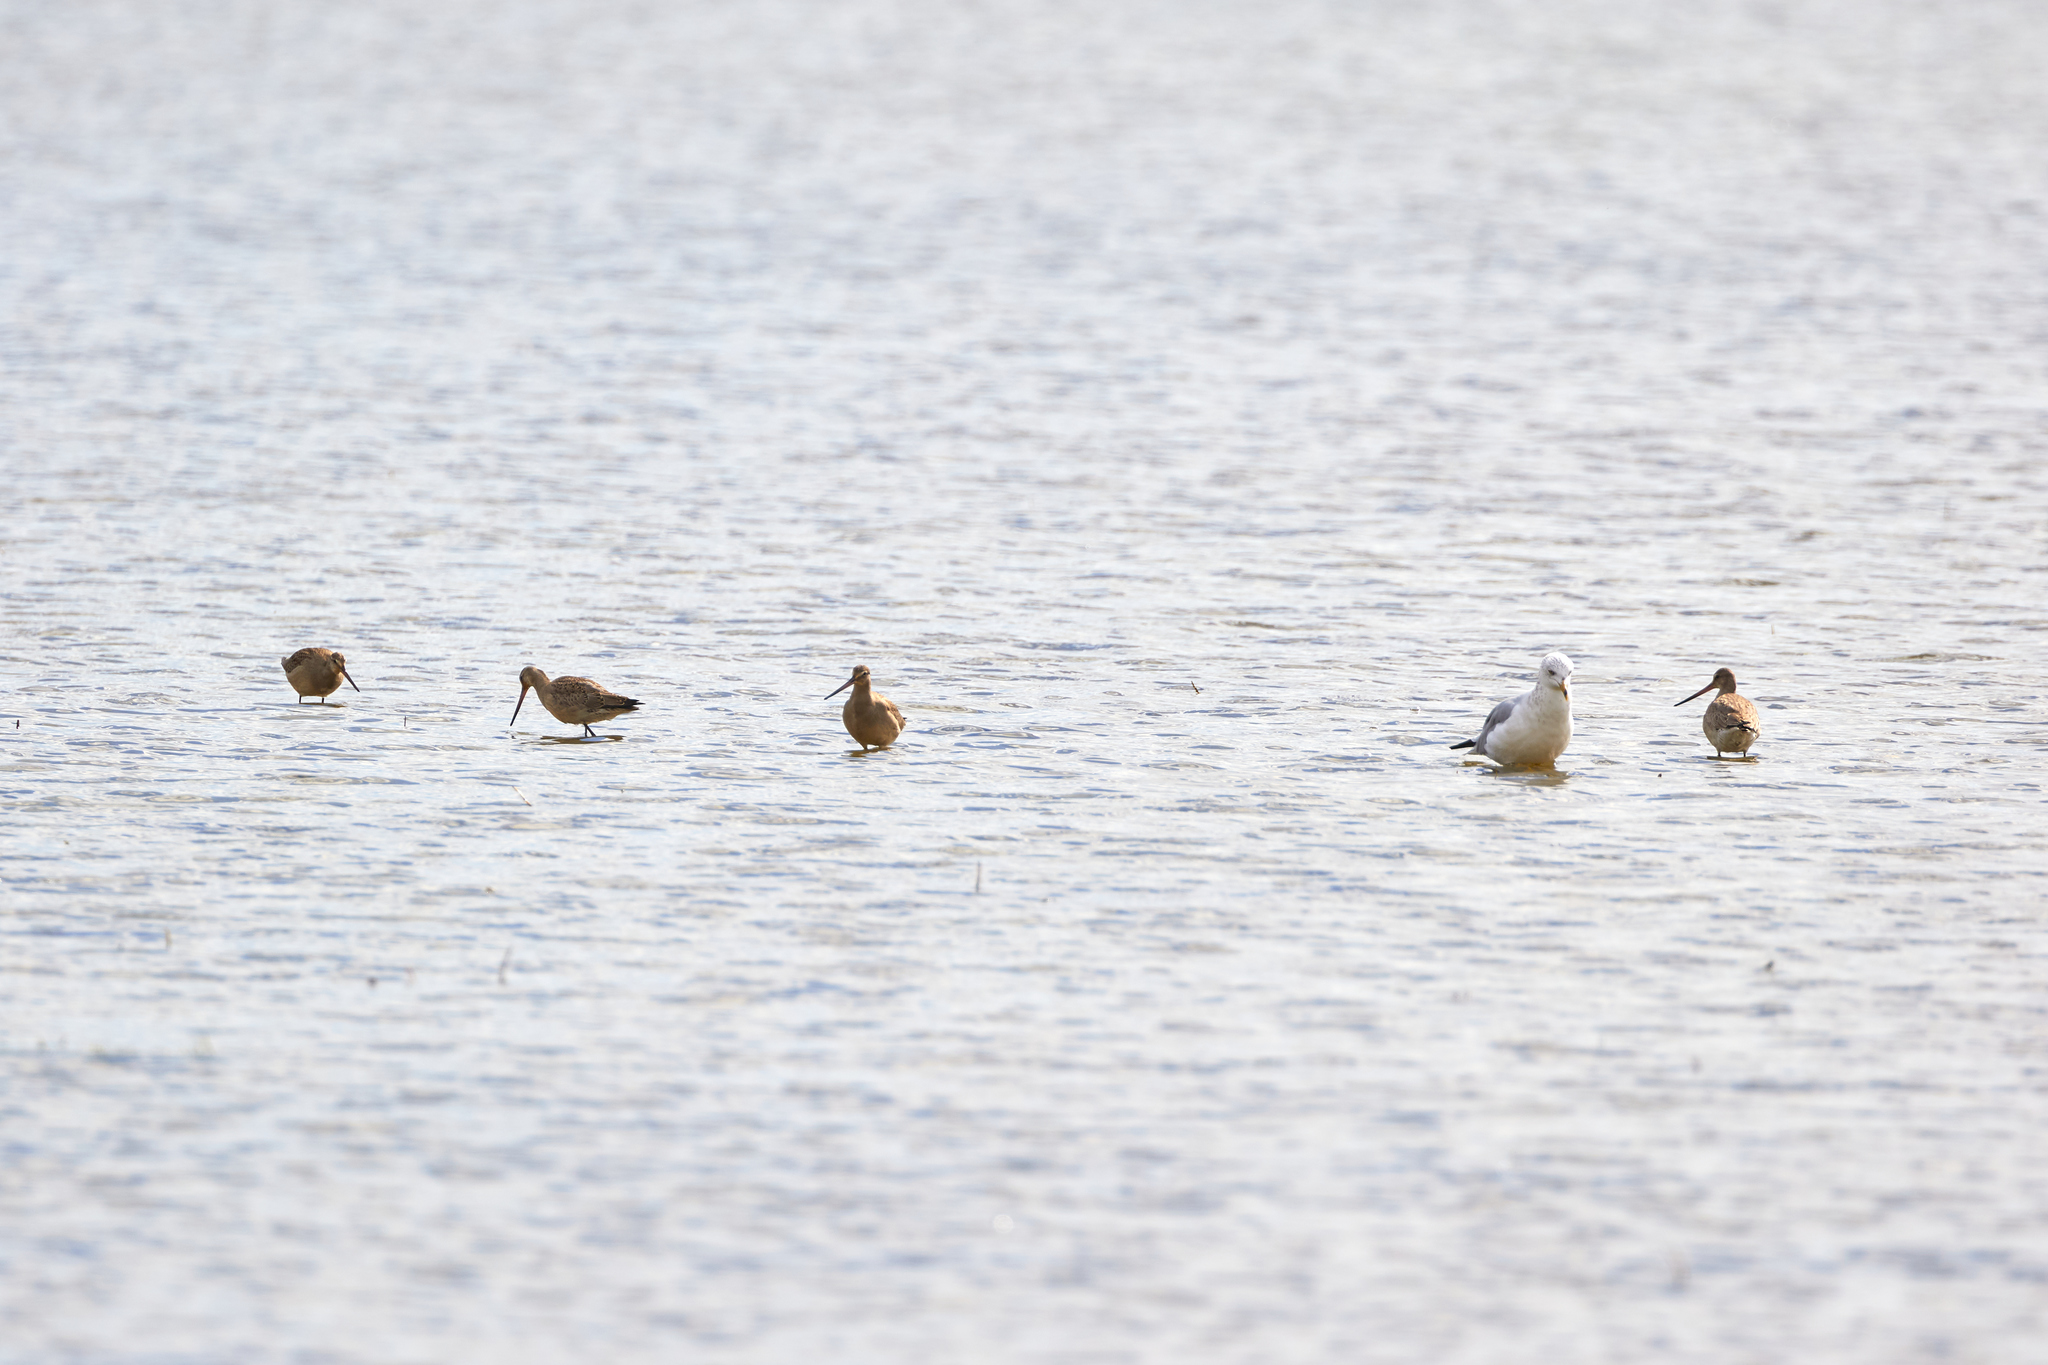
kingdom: Animalia
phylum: Chordata
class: Aves
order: Charadriiformes
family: Scolopacidae
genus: Limosa
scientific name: Limosa haemastica
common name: Hudsonian godwit
